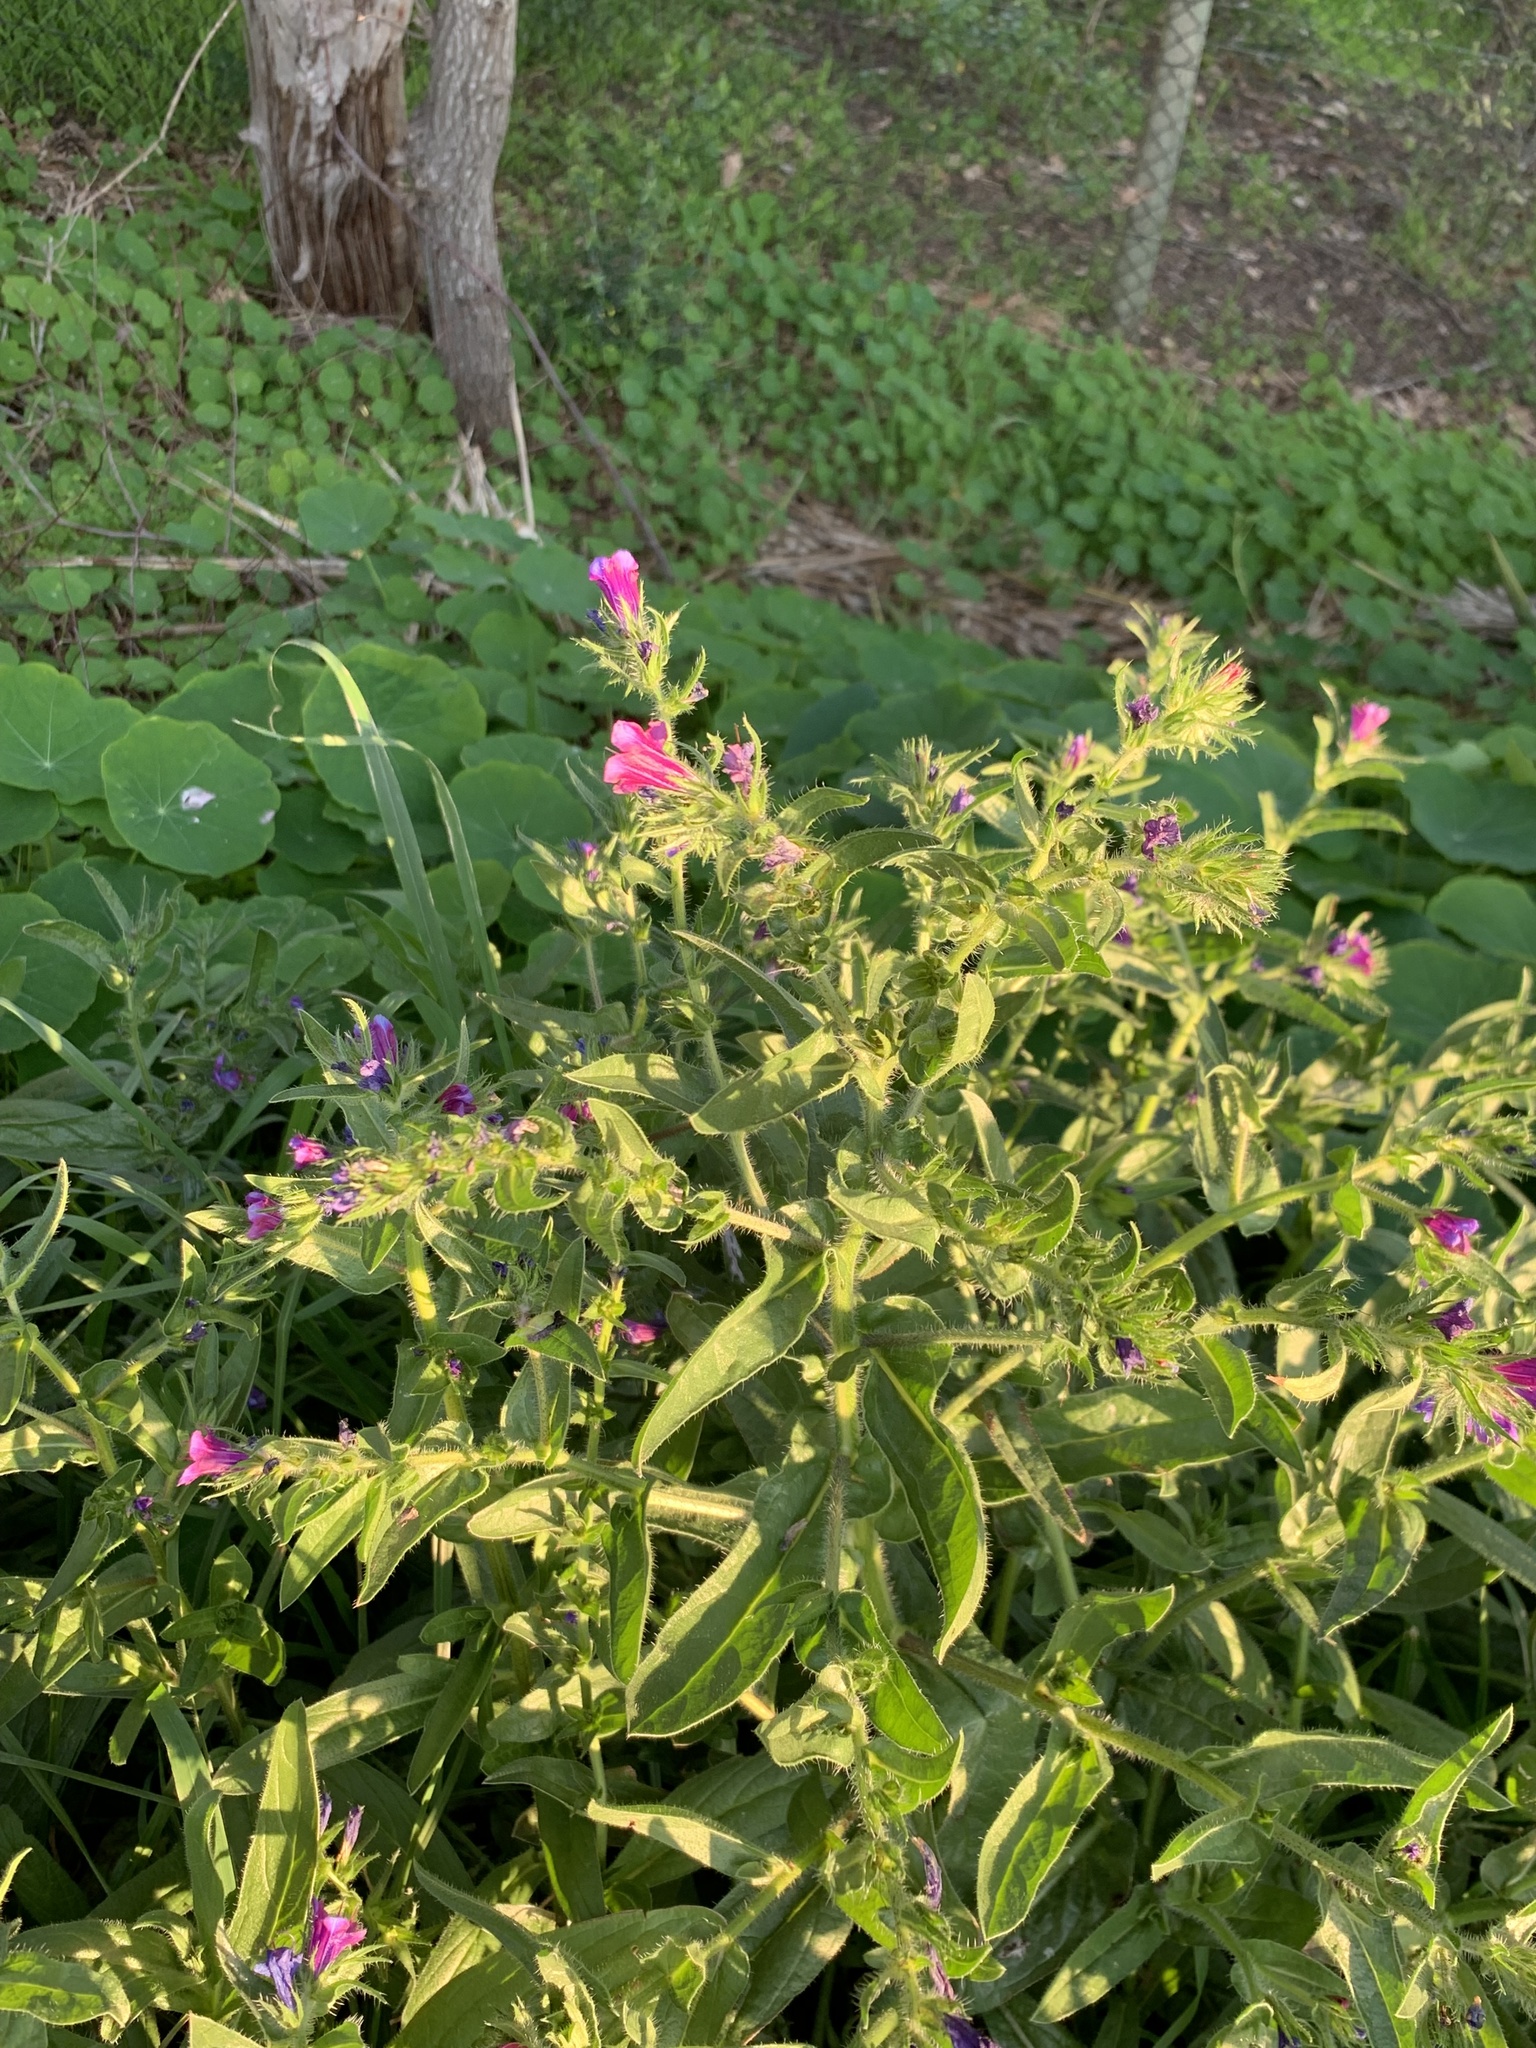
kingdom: Plantae
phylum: Tracheophyta
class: Magnoliopsida
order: Boraginales
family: Boraginaceae
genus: Echium
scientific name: Echium plantagineum
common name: Purple viper's-bugloss
